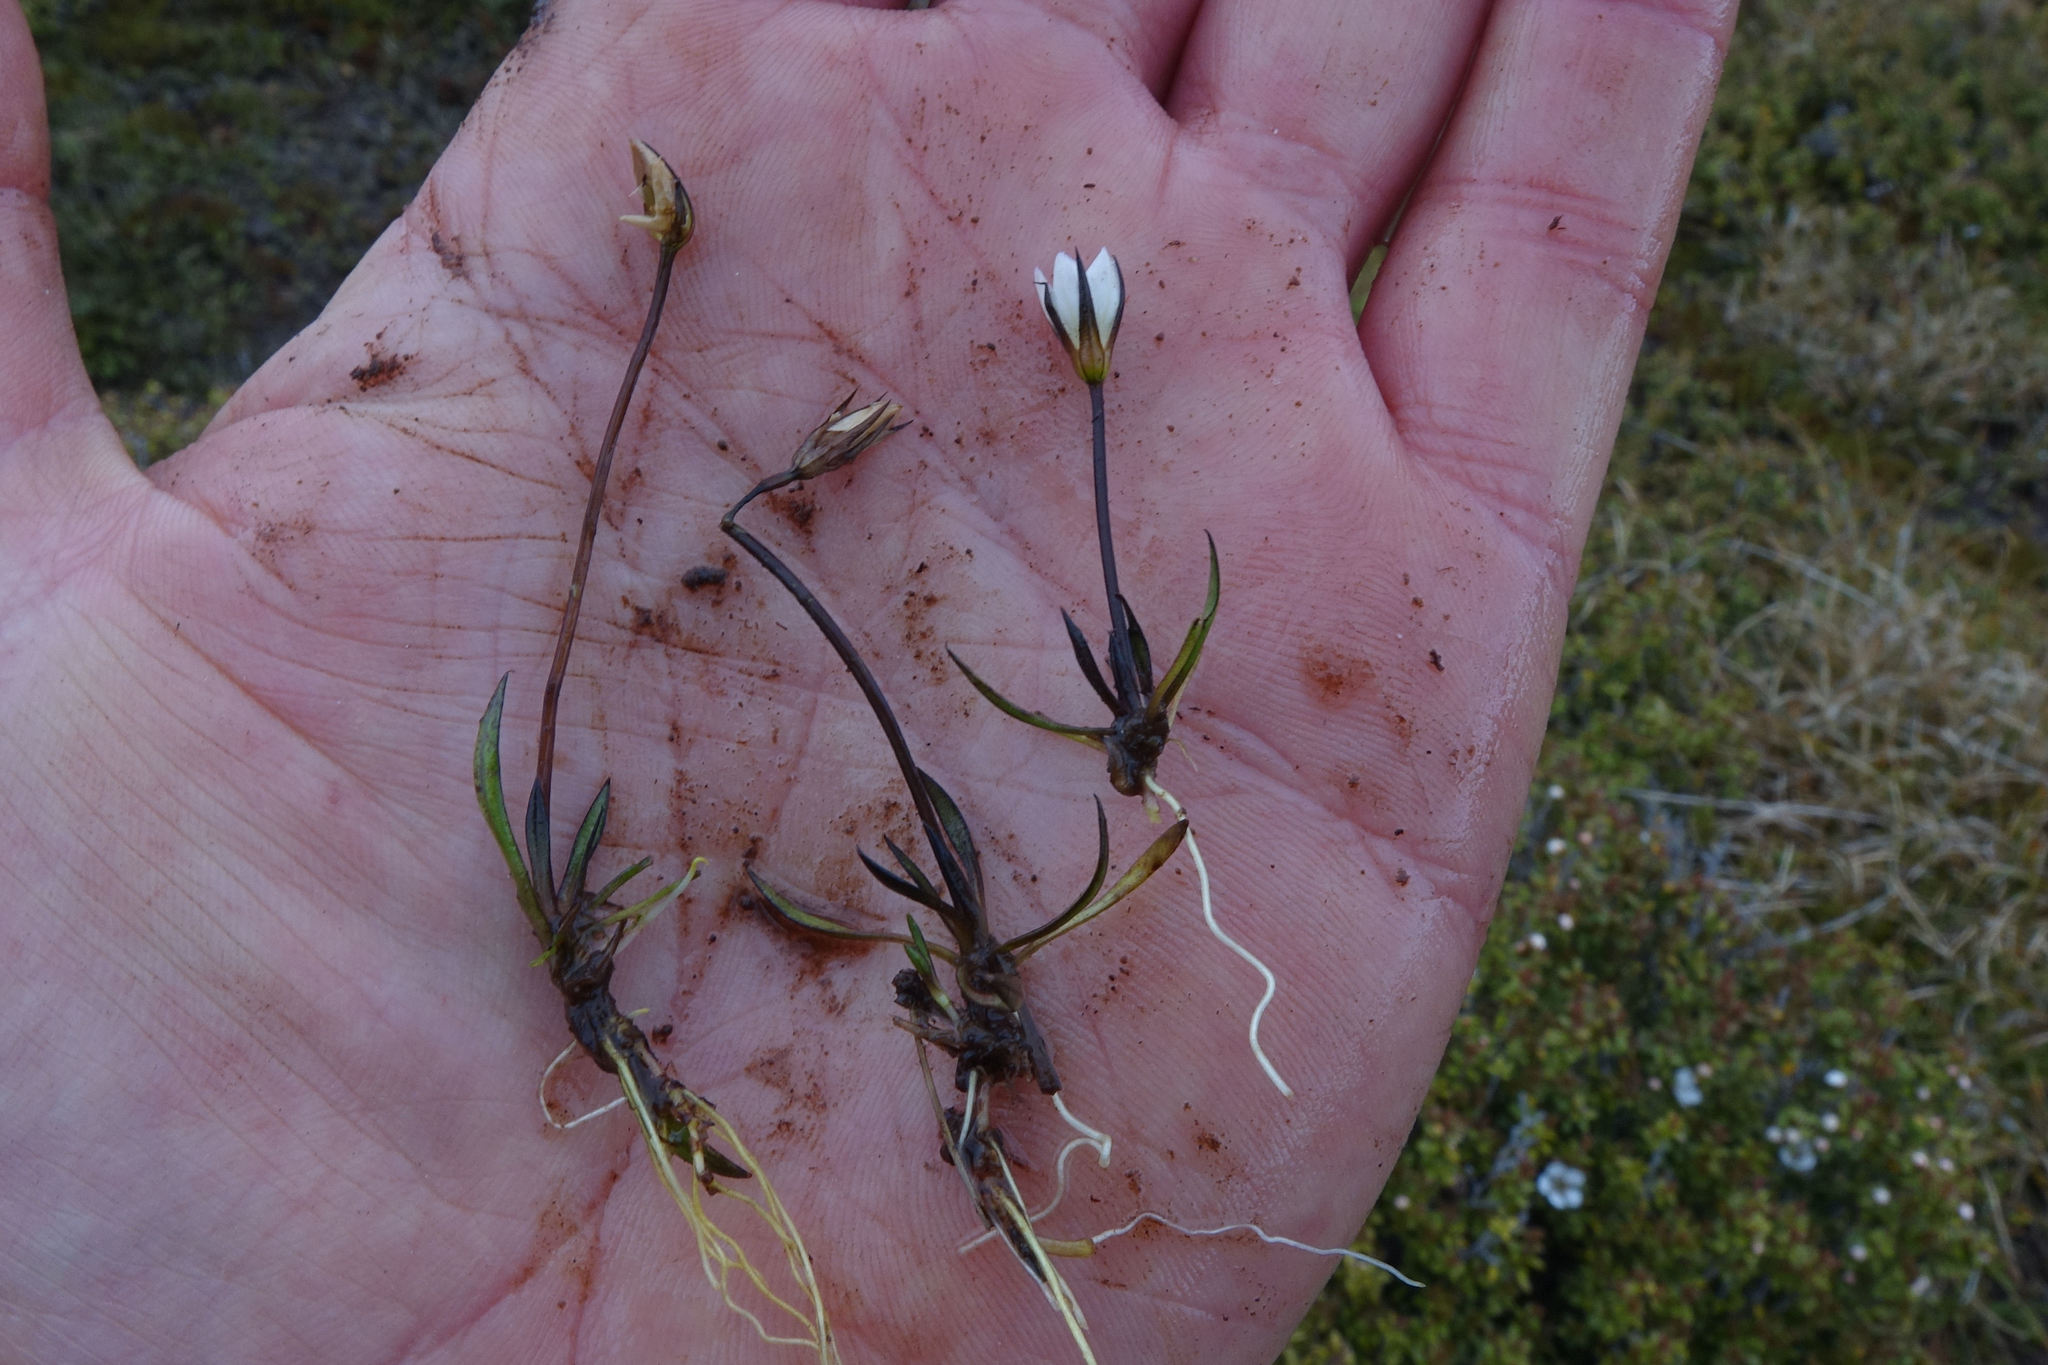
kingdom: Plantae
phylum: Tracheophyta
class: Magnoliopsida
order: Gentianales
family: Gentianaceae
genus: Gentianella
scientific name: Gentianella lineata
